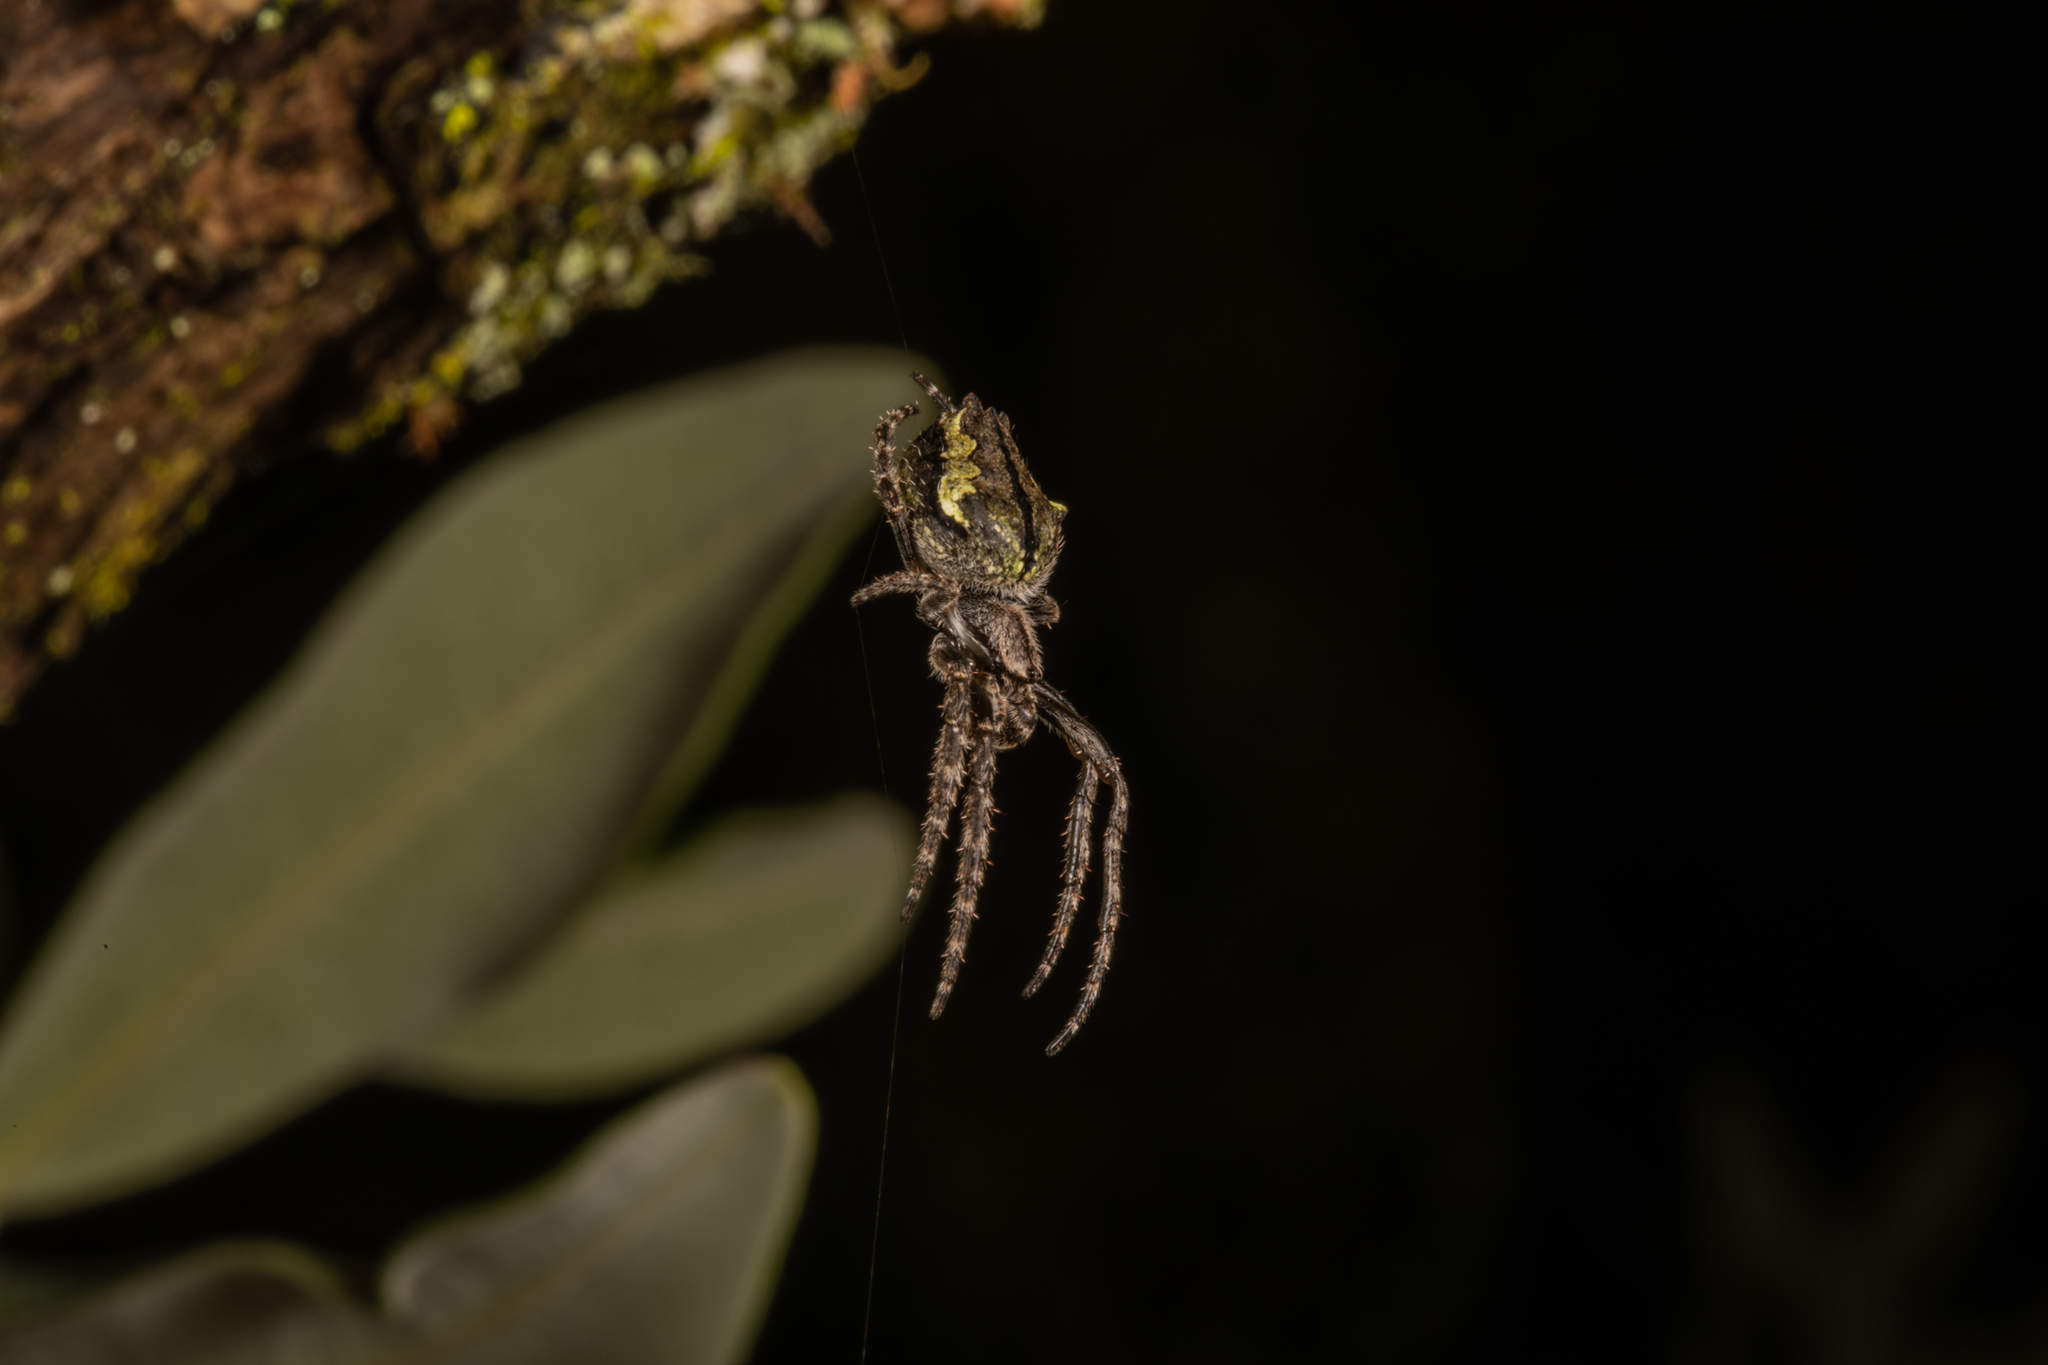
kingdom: Animalia
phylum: Arthropoda
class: Arachnida
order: Araneae
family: Araneidae
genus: Eriophora
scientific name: Eriophora pustulosa
